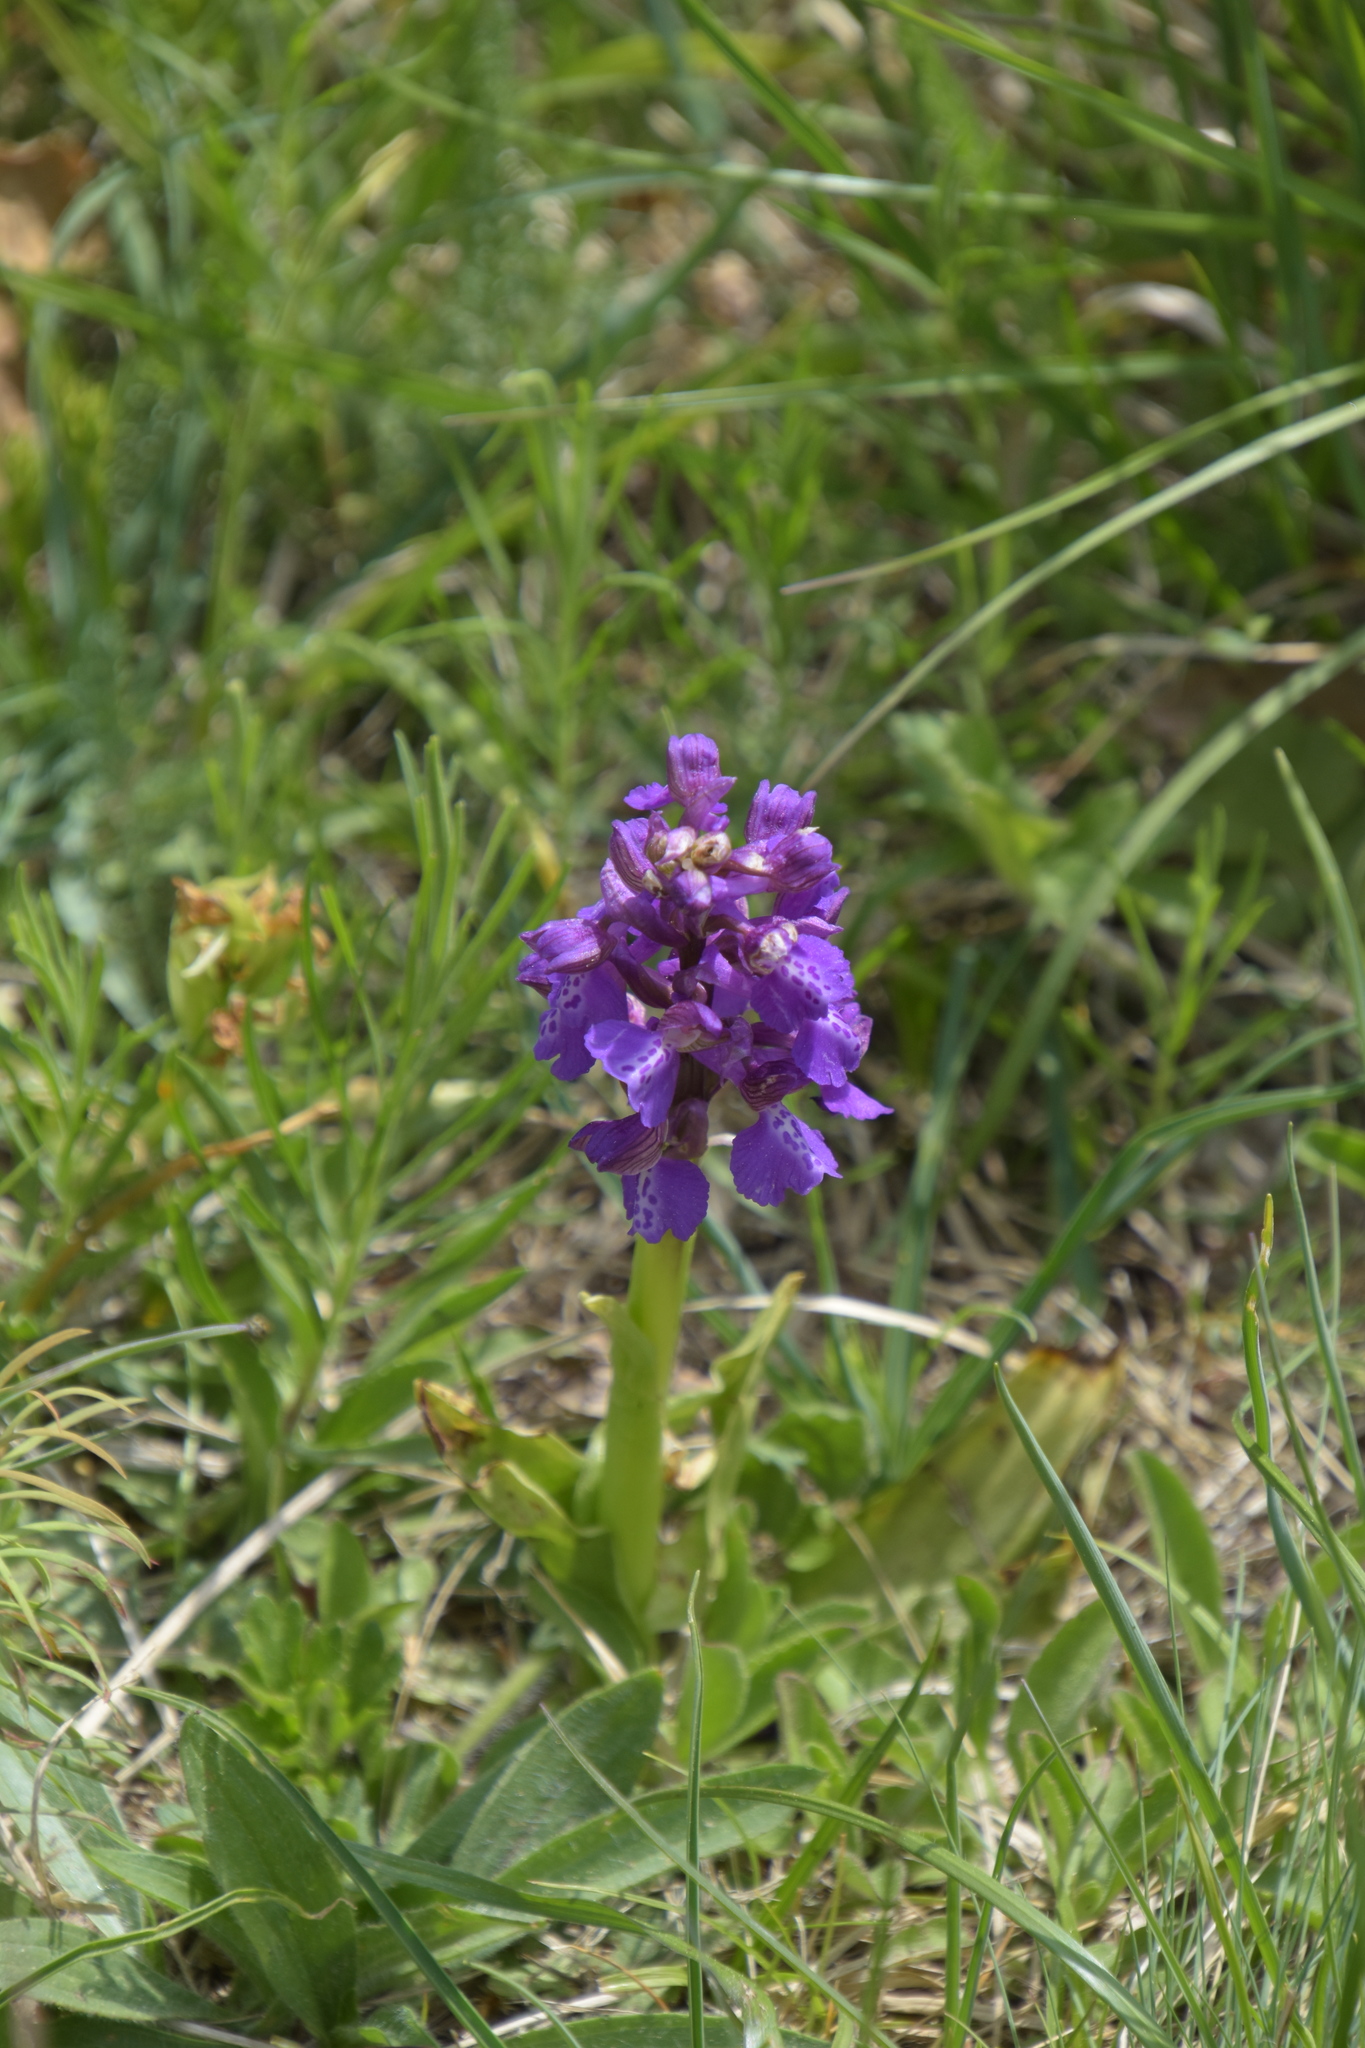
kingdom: Plantae
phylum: Tracheophyta
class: Liliopsida
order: Asparagales
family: Orchidaceae
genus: Anacamptis
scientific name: Anacamptis morio
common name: Green-winged orchid
